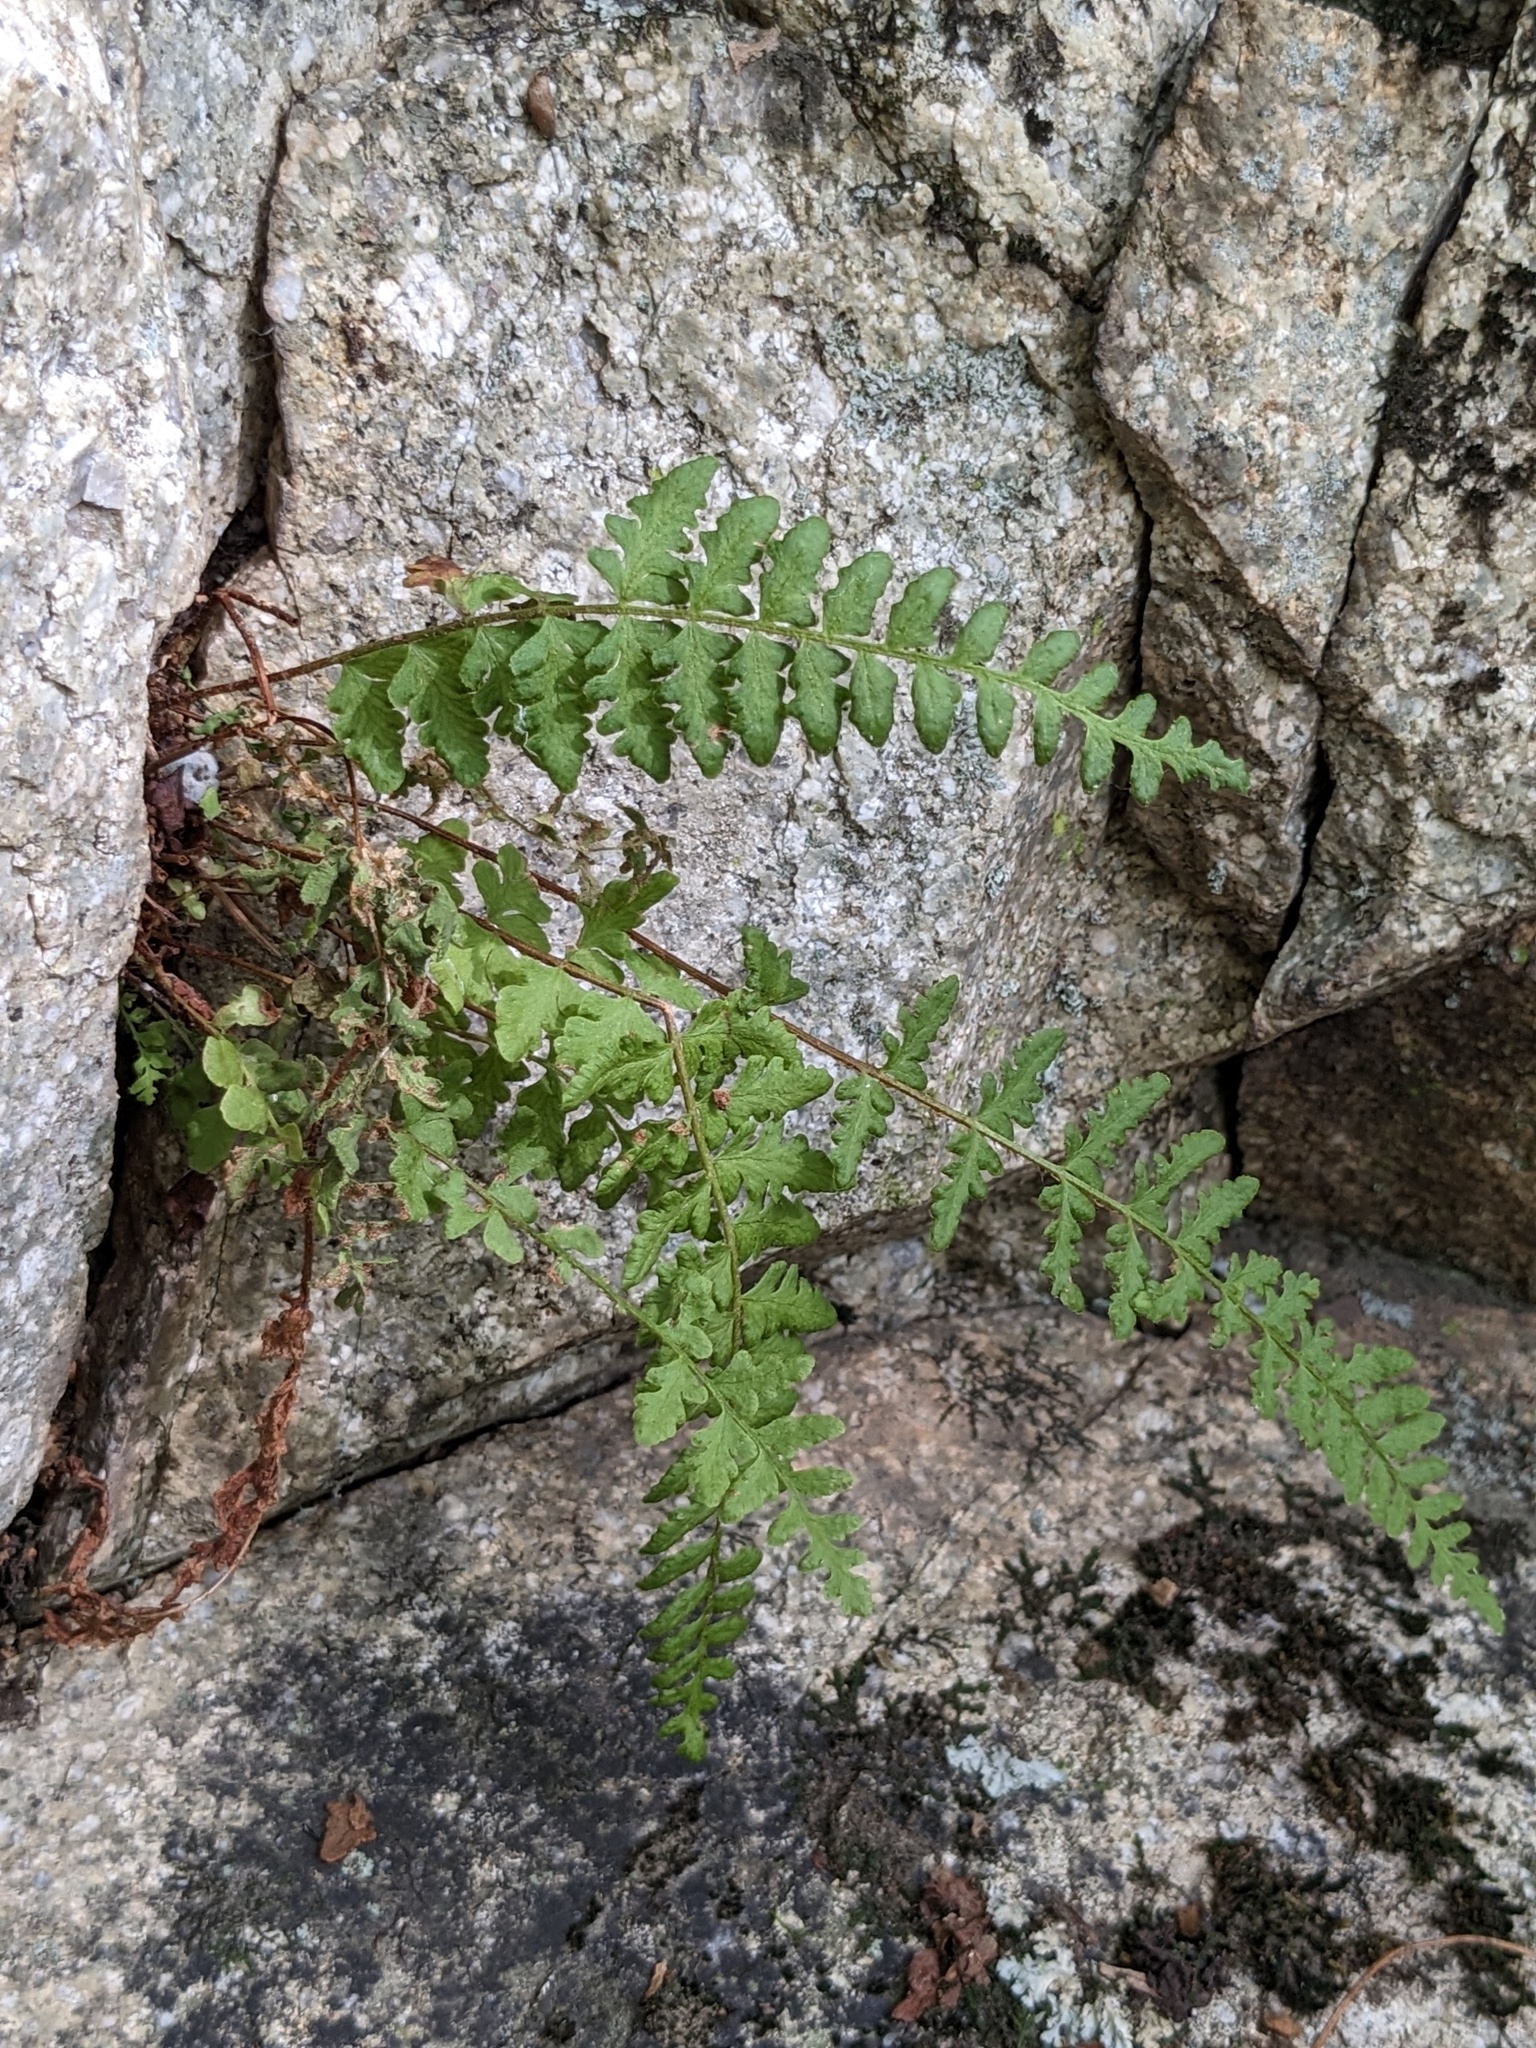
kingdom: Plantae
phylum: Tracheophyta
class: Polypodiopsida
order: Polypodiales
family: Woodsiaceae
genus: Woodsia
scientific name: Woodsia subcordata
